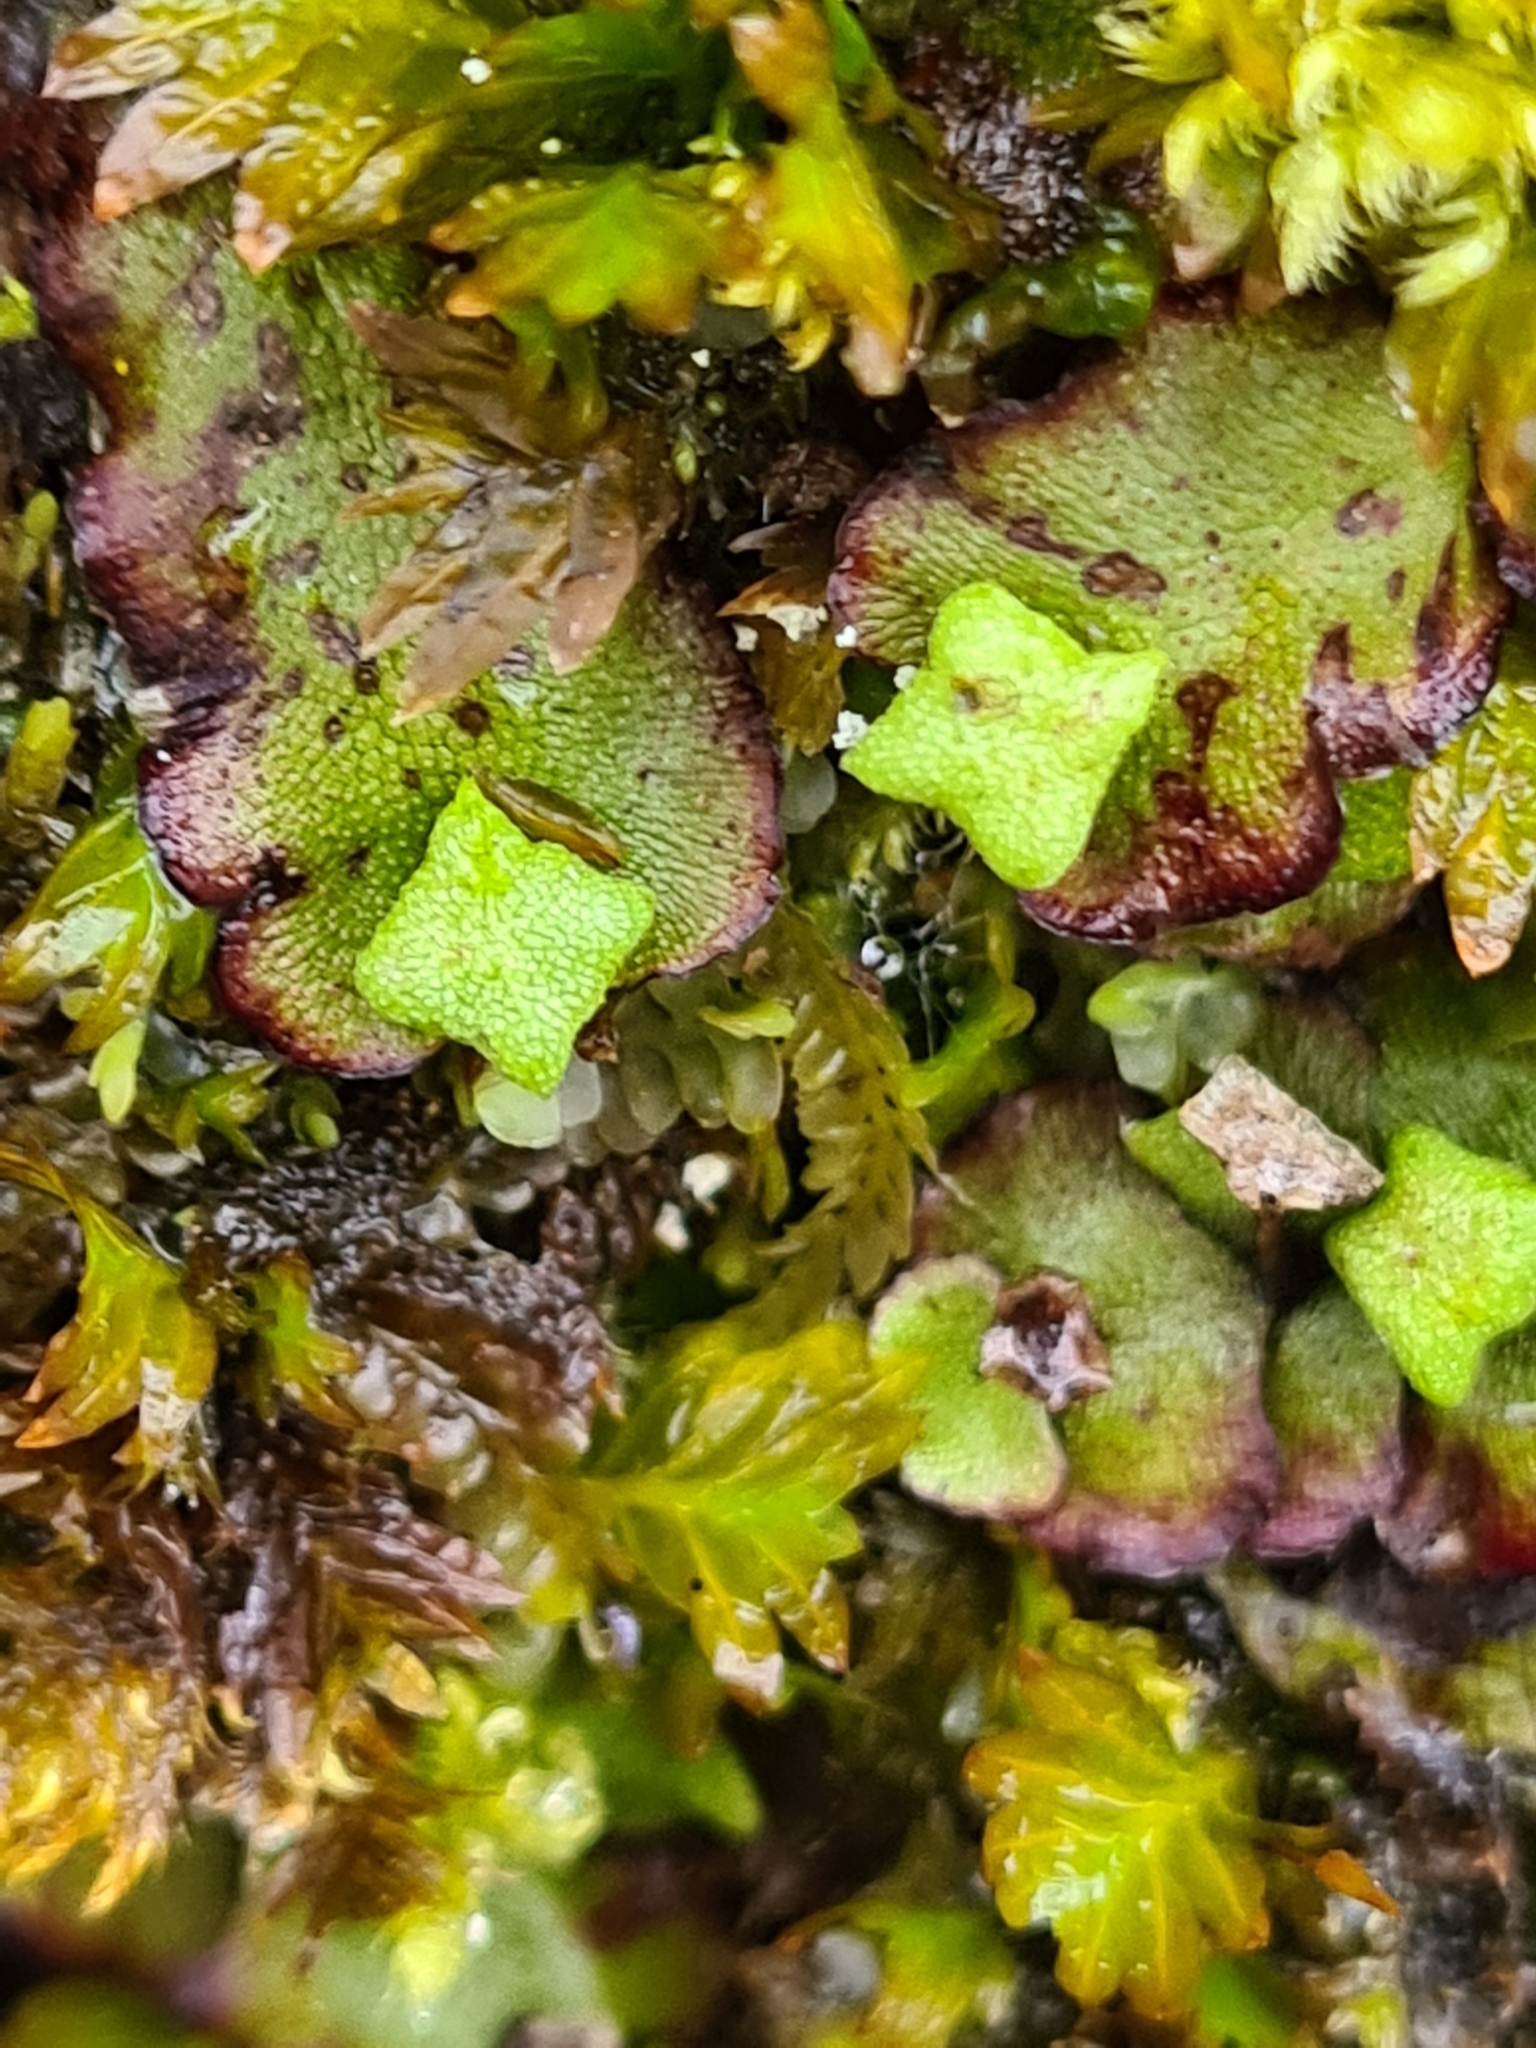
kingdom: Plantae
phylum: Marchantiophyta
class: Marchantiopsida
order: Marchantiales
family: Marchantiaceae
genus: Marchantia
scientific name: Marchantia quadrata
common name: Narrow mushroom-headed liverwort
